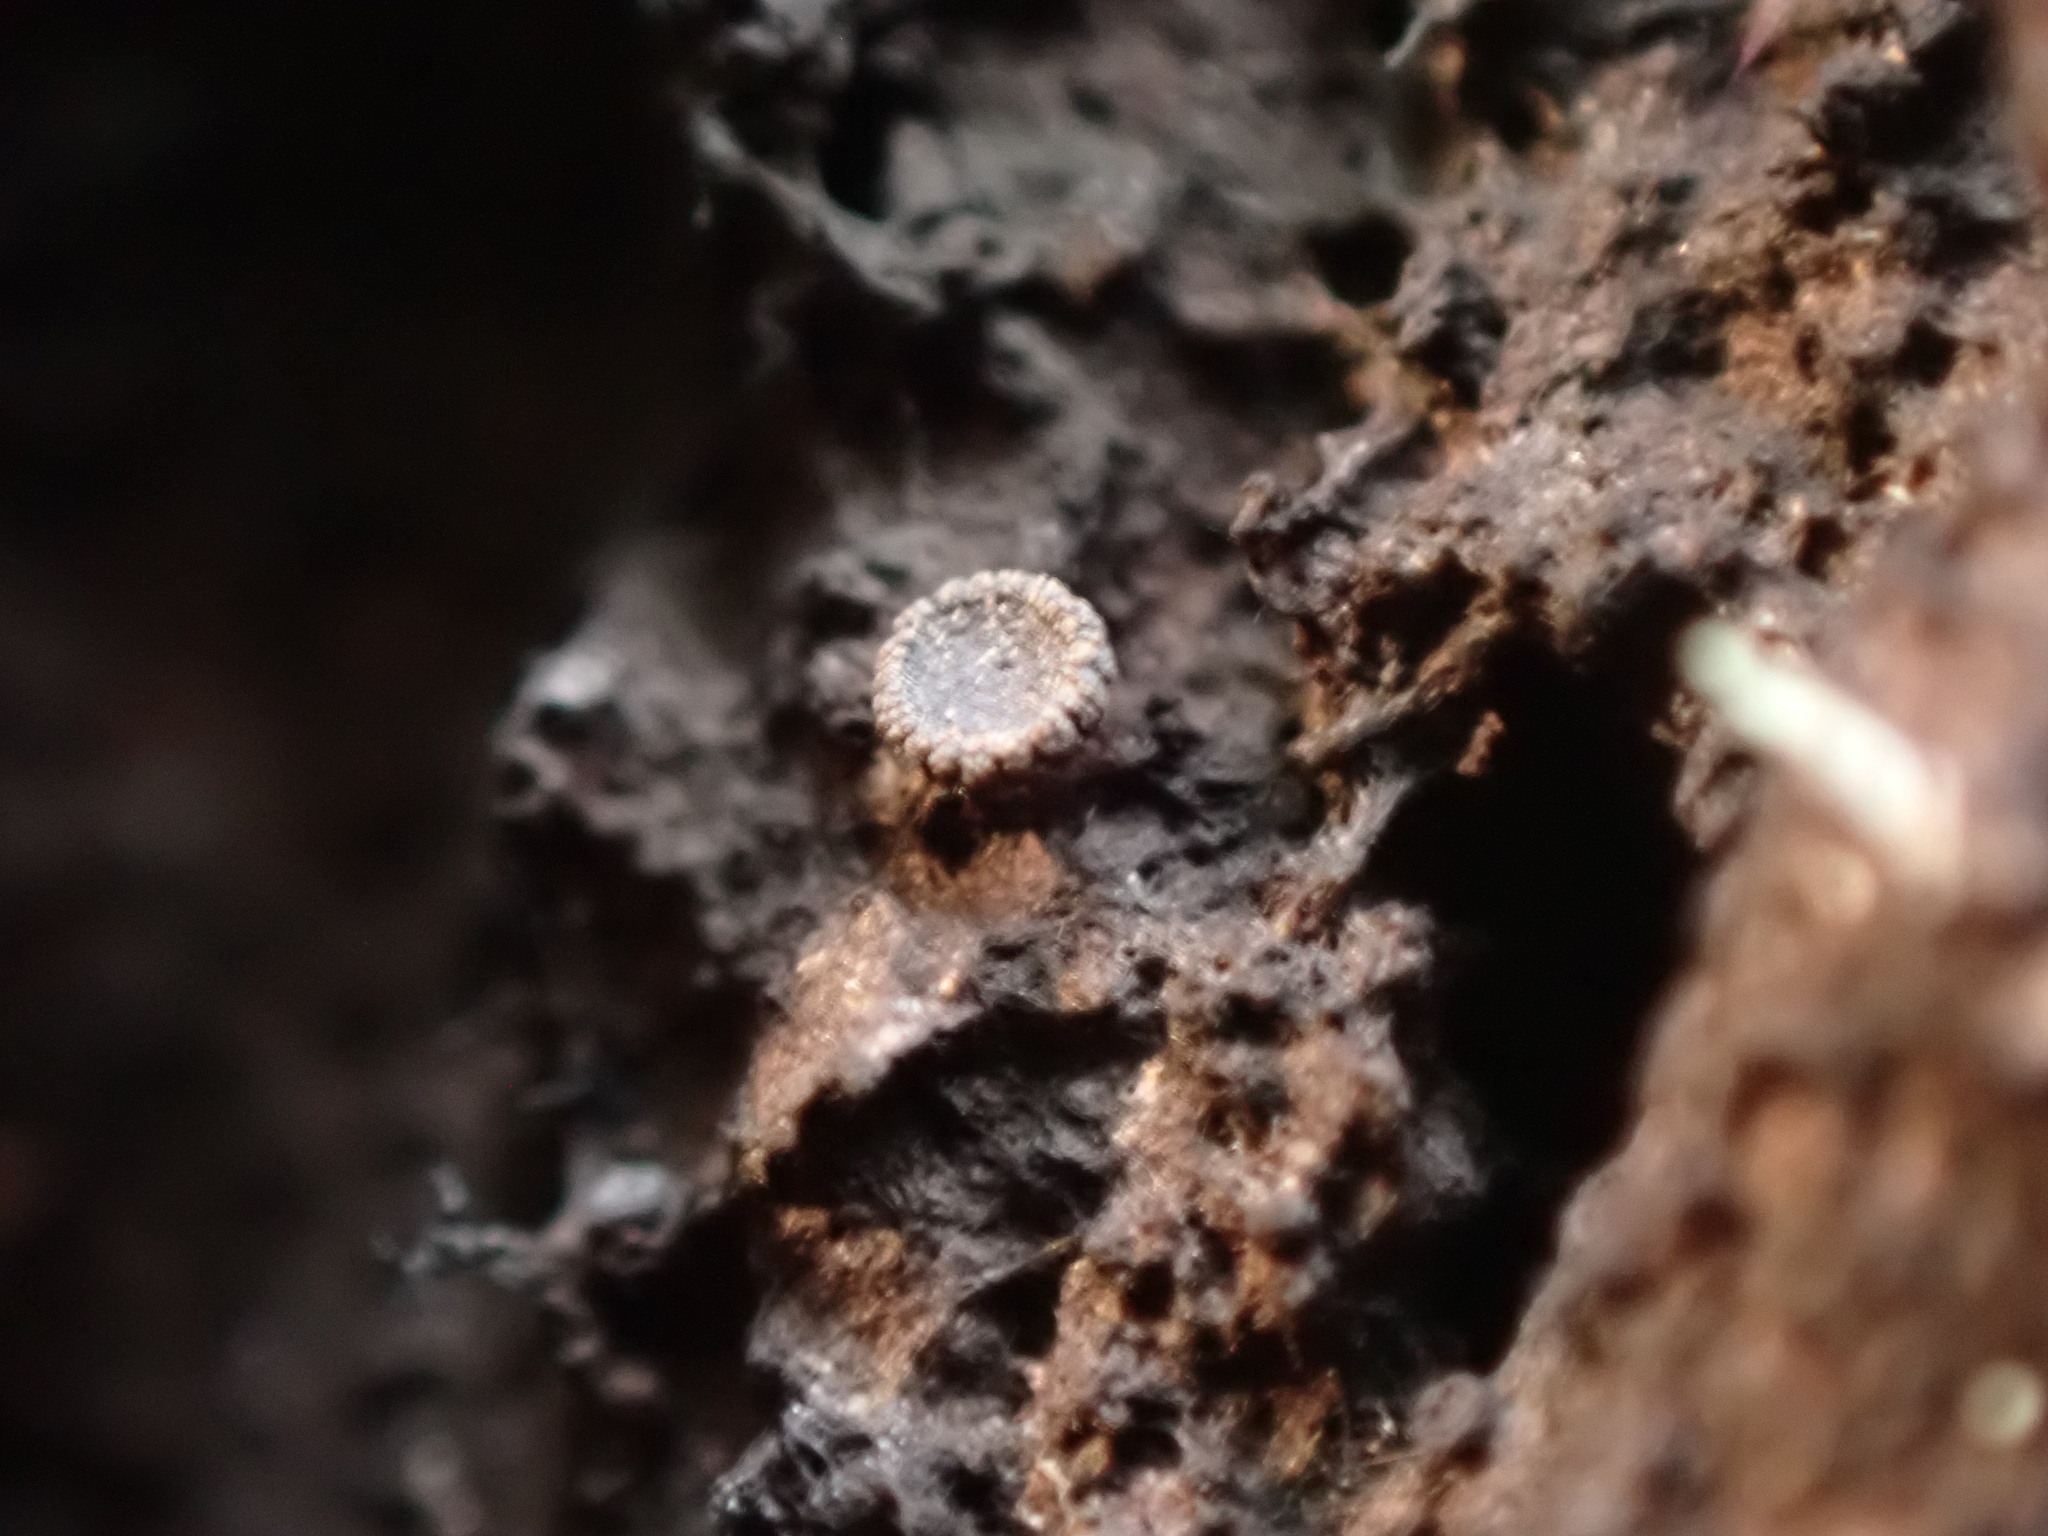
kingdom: Fungi
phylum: Ascomycota
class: Sareomycetes
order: Sareales
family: Zythiaceae
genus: Atrozythia
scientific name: Atrozythia klamathica
